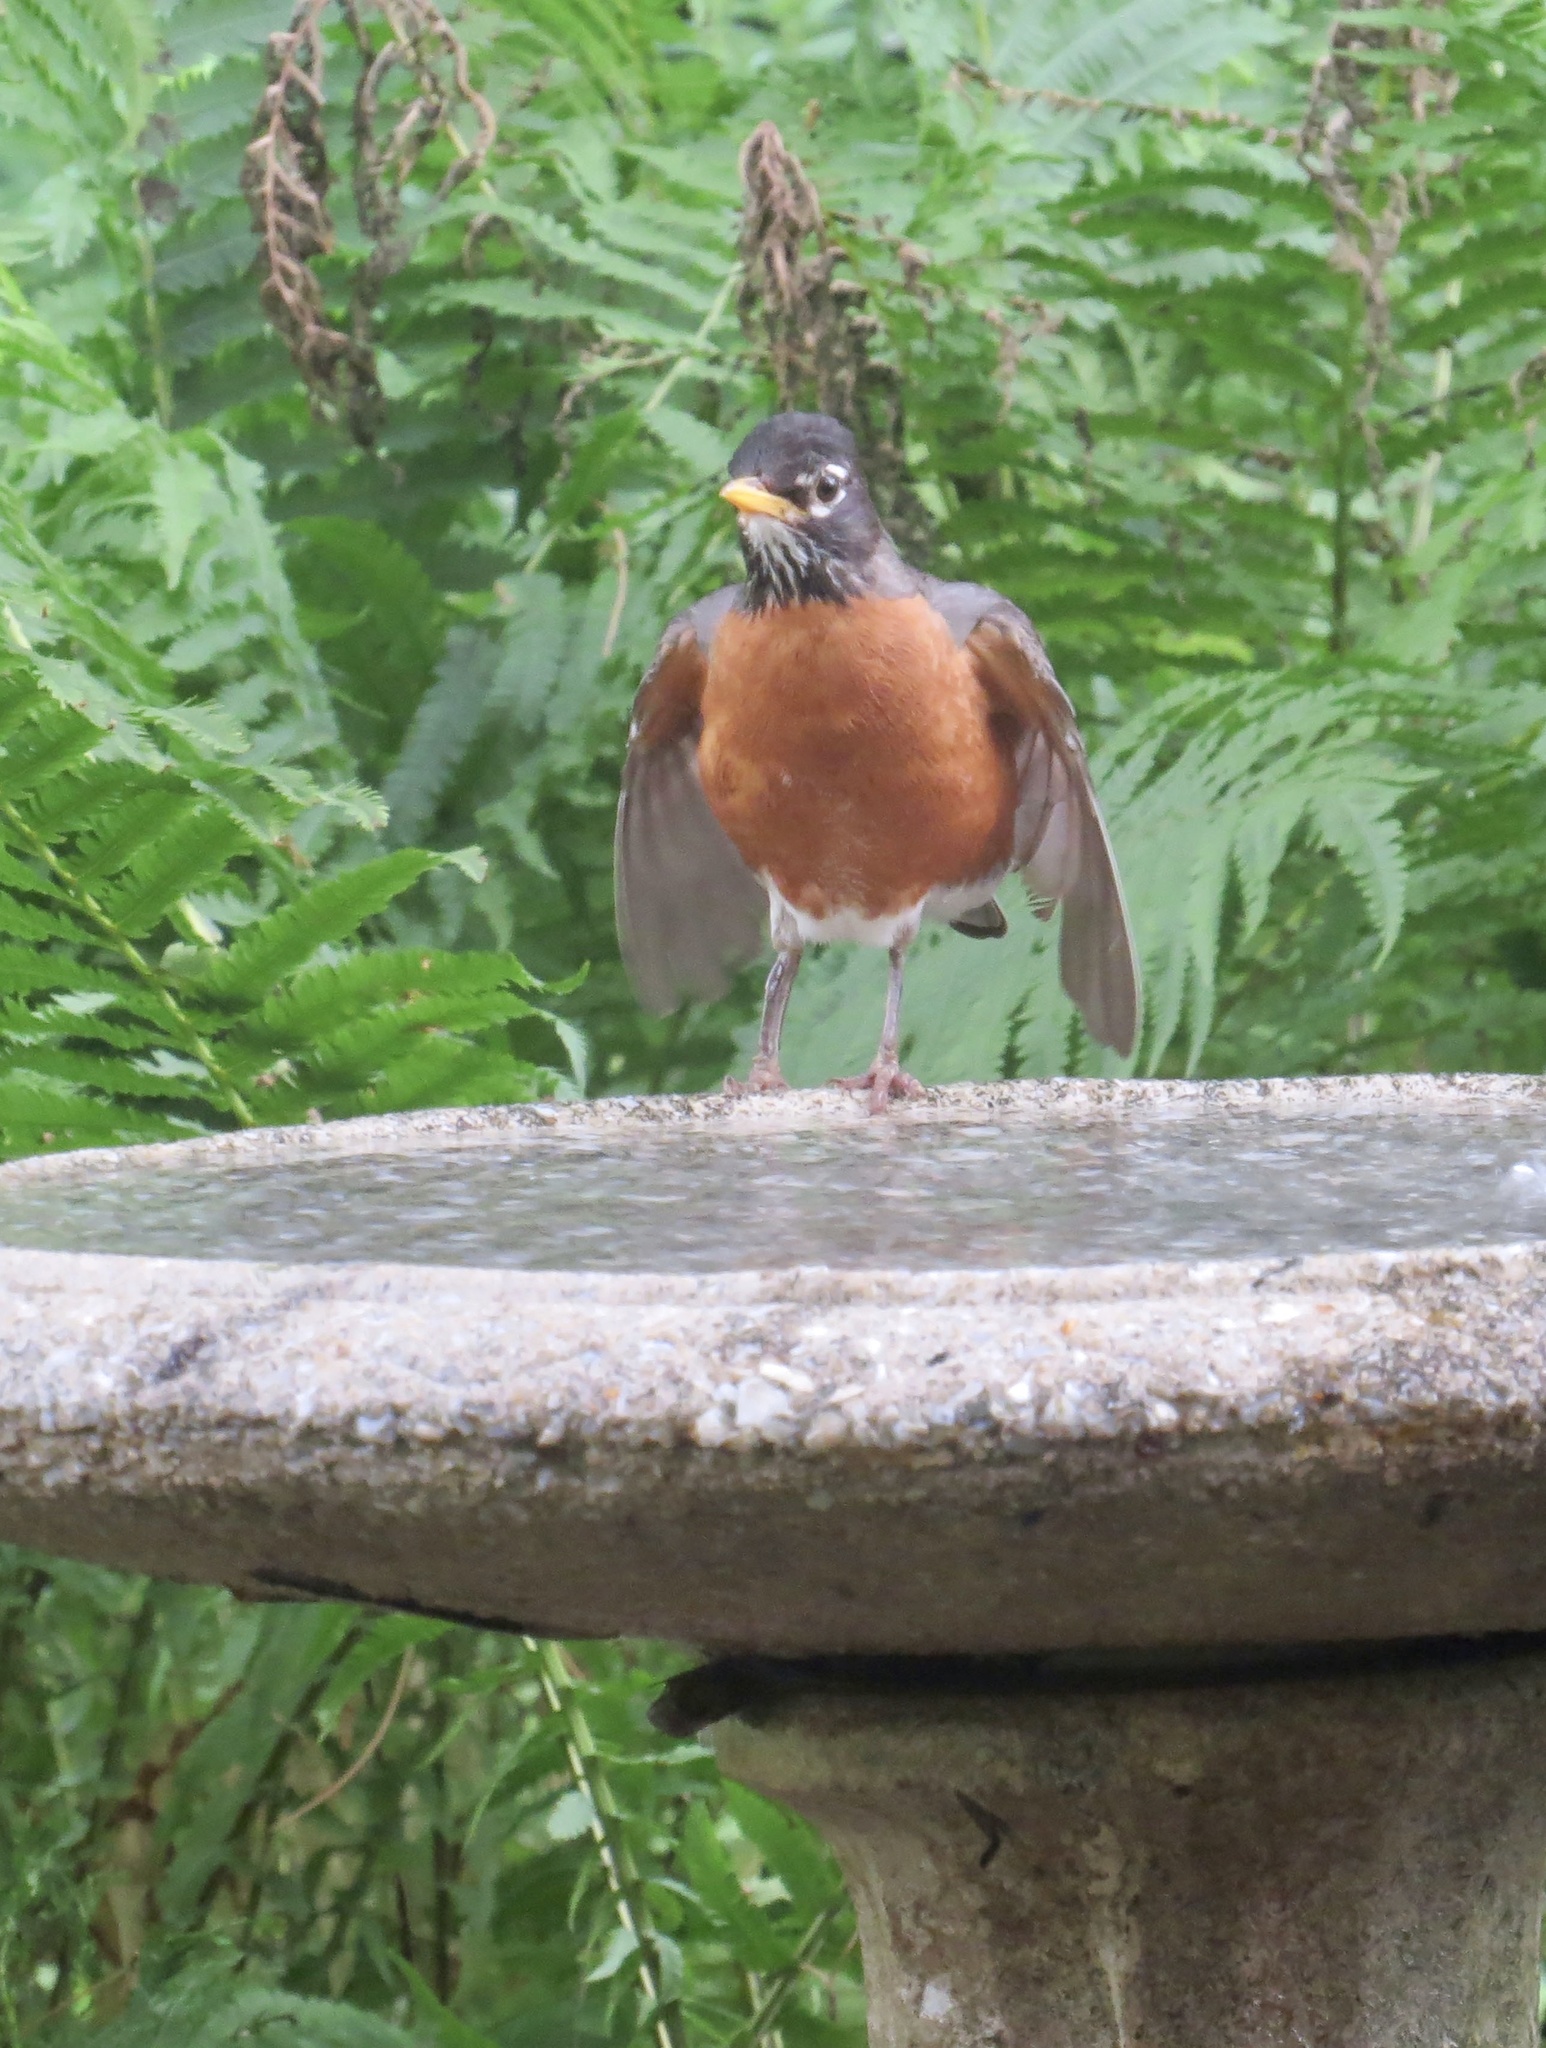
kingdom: Animalia
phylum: Chordata
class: Aves
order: Passeriformes
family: Turdidae
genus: Turdus
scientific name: Turdus migratorius
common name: American robin
